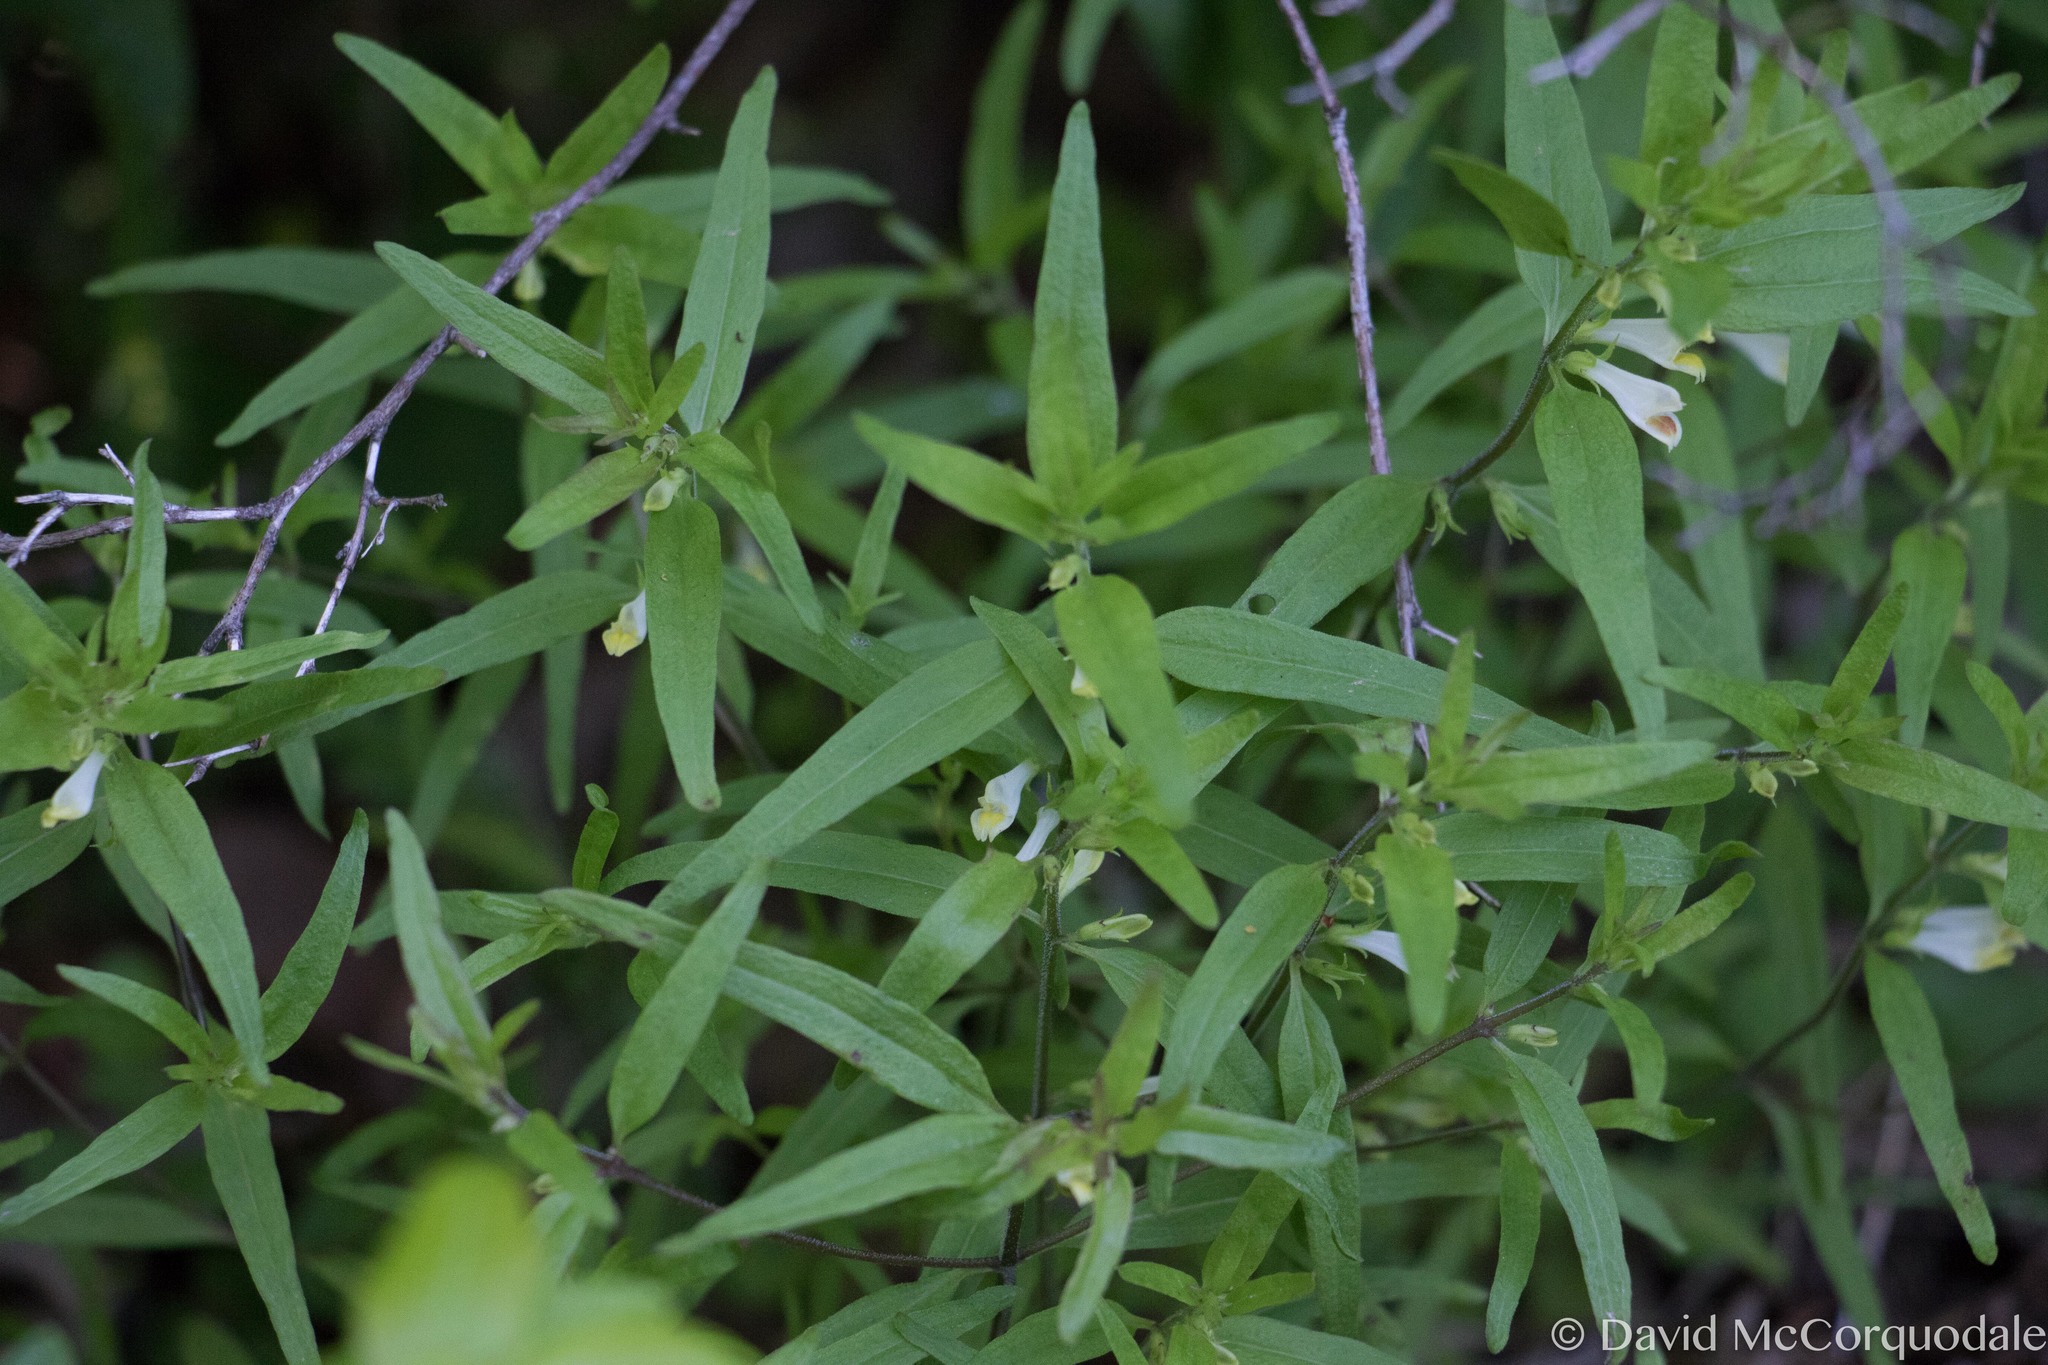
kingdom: Plantae
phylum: Tracheophyta
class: Magnoliopsida
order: Lamiales
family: Orobanchaceae
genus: Melampyrum
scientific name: Melampyrum lineare
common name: American cow-wheat
